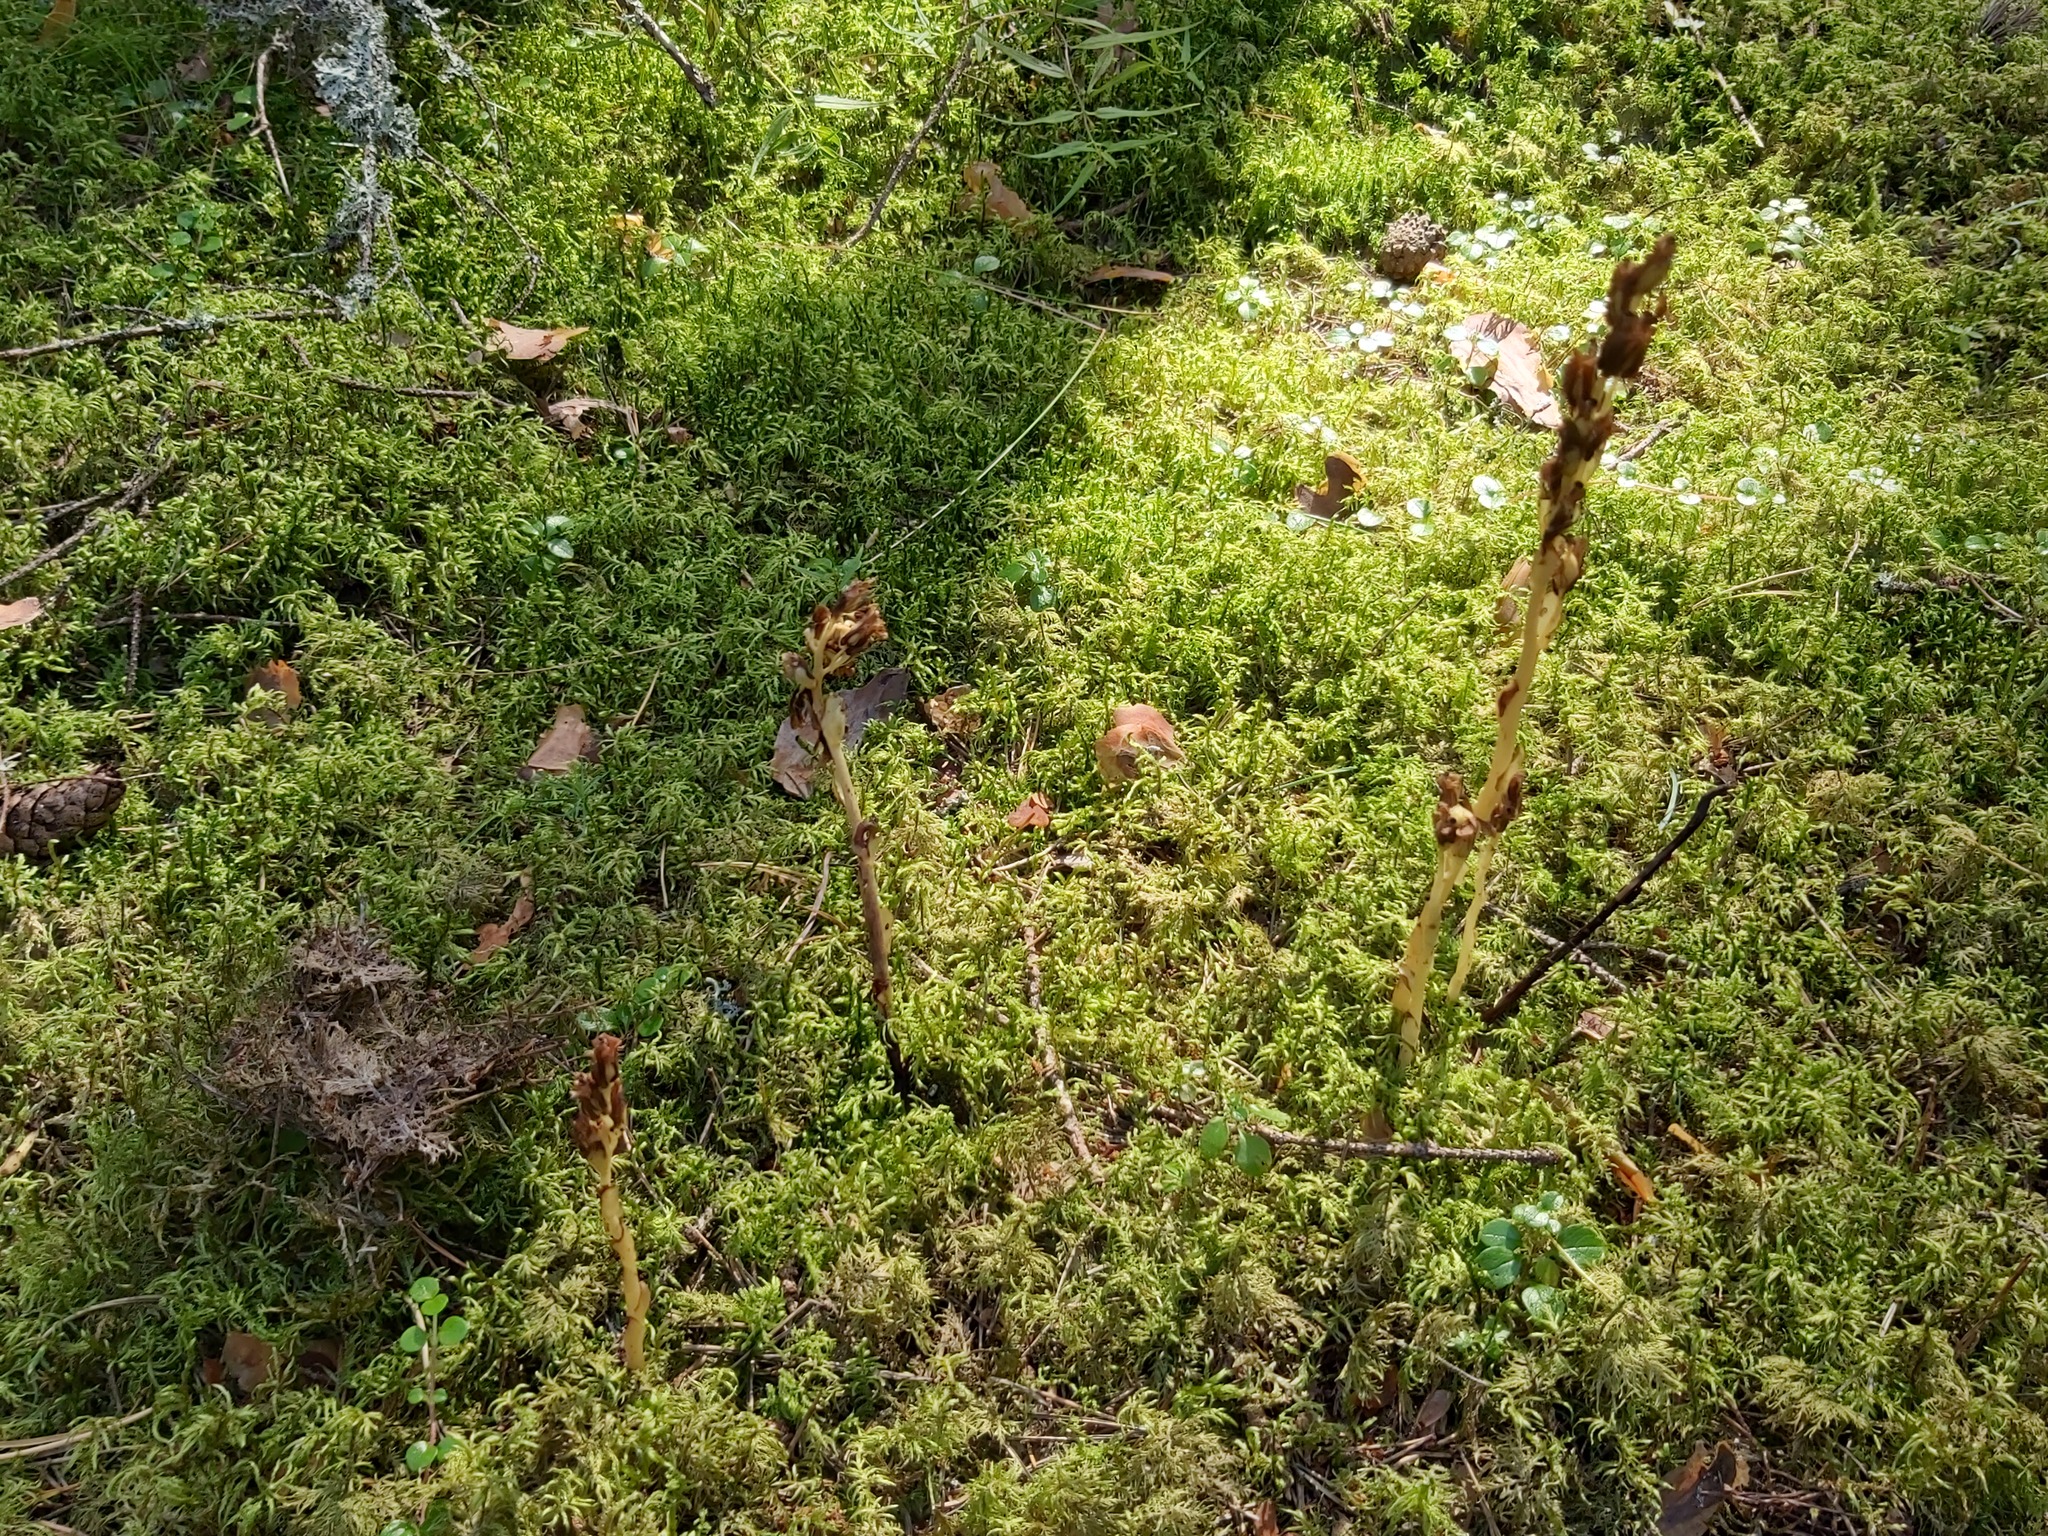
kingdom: Plantae
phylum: Tracheophyta
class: Magnoliopsida
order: Ericales
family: Ericaceae
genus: Hypopitys
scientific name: Hypopitys monotropa
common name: Yellow bird's-nest
